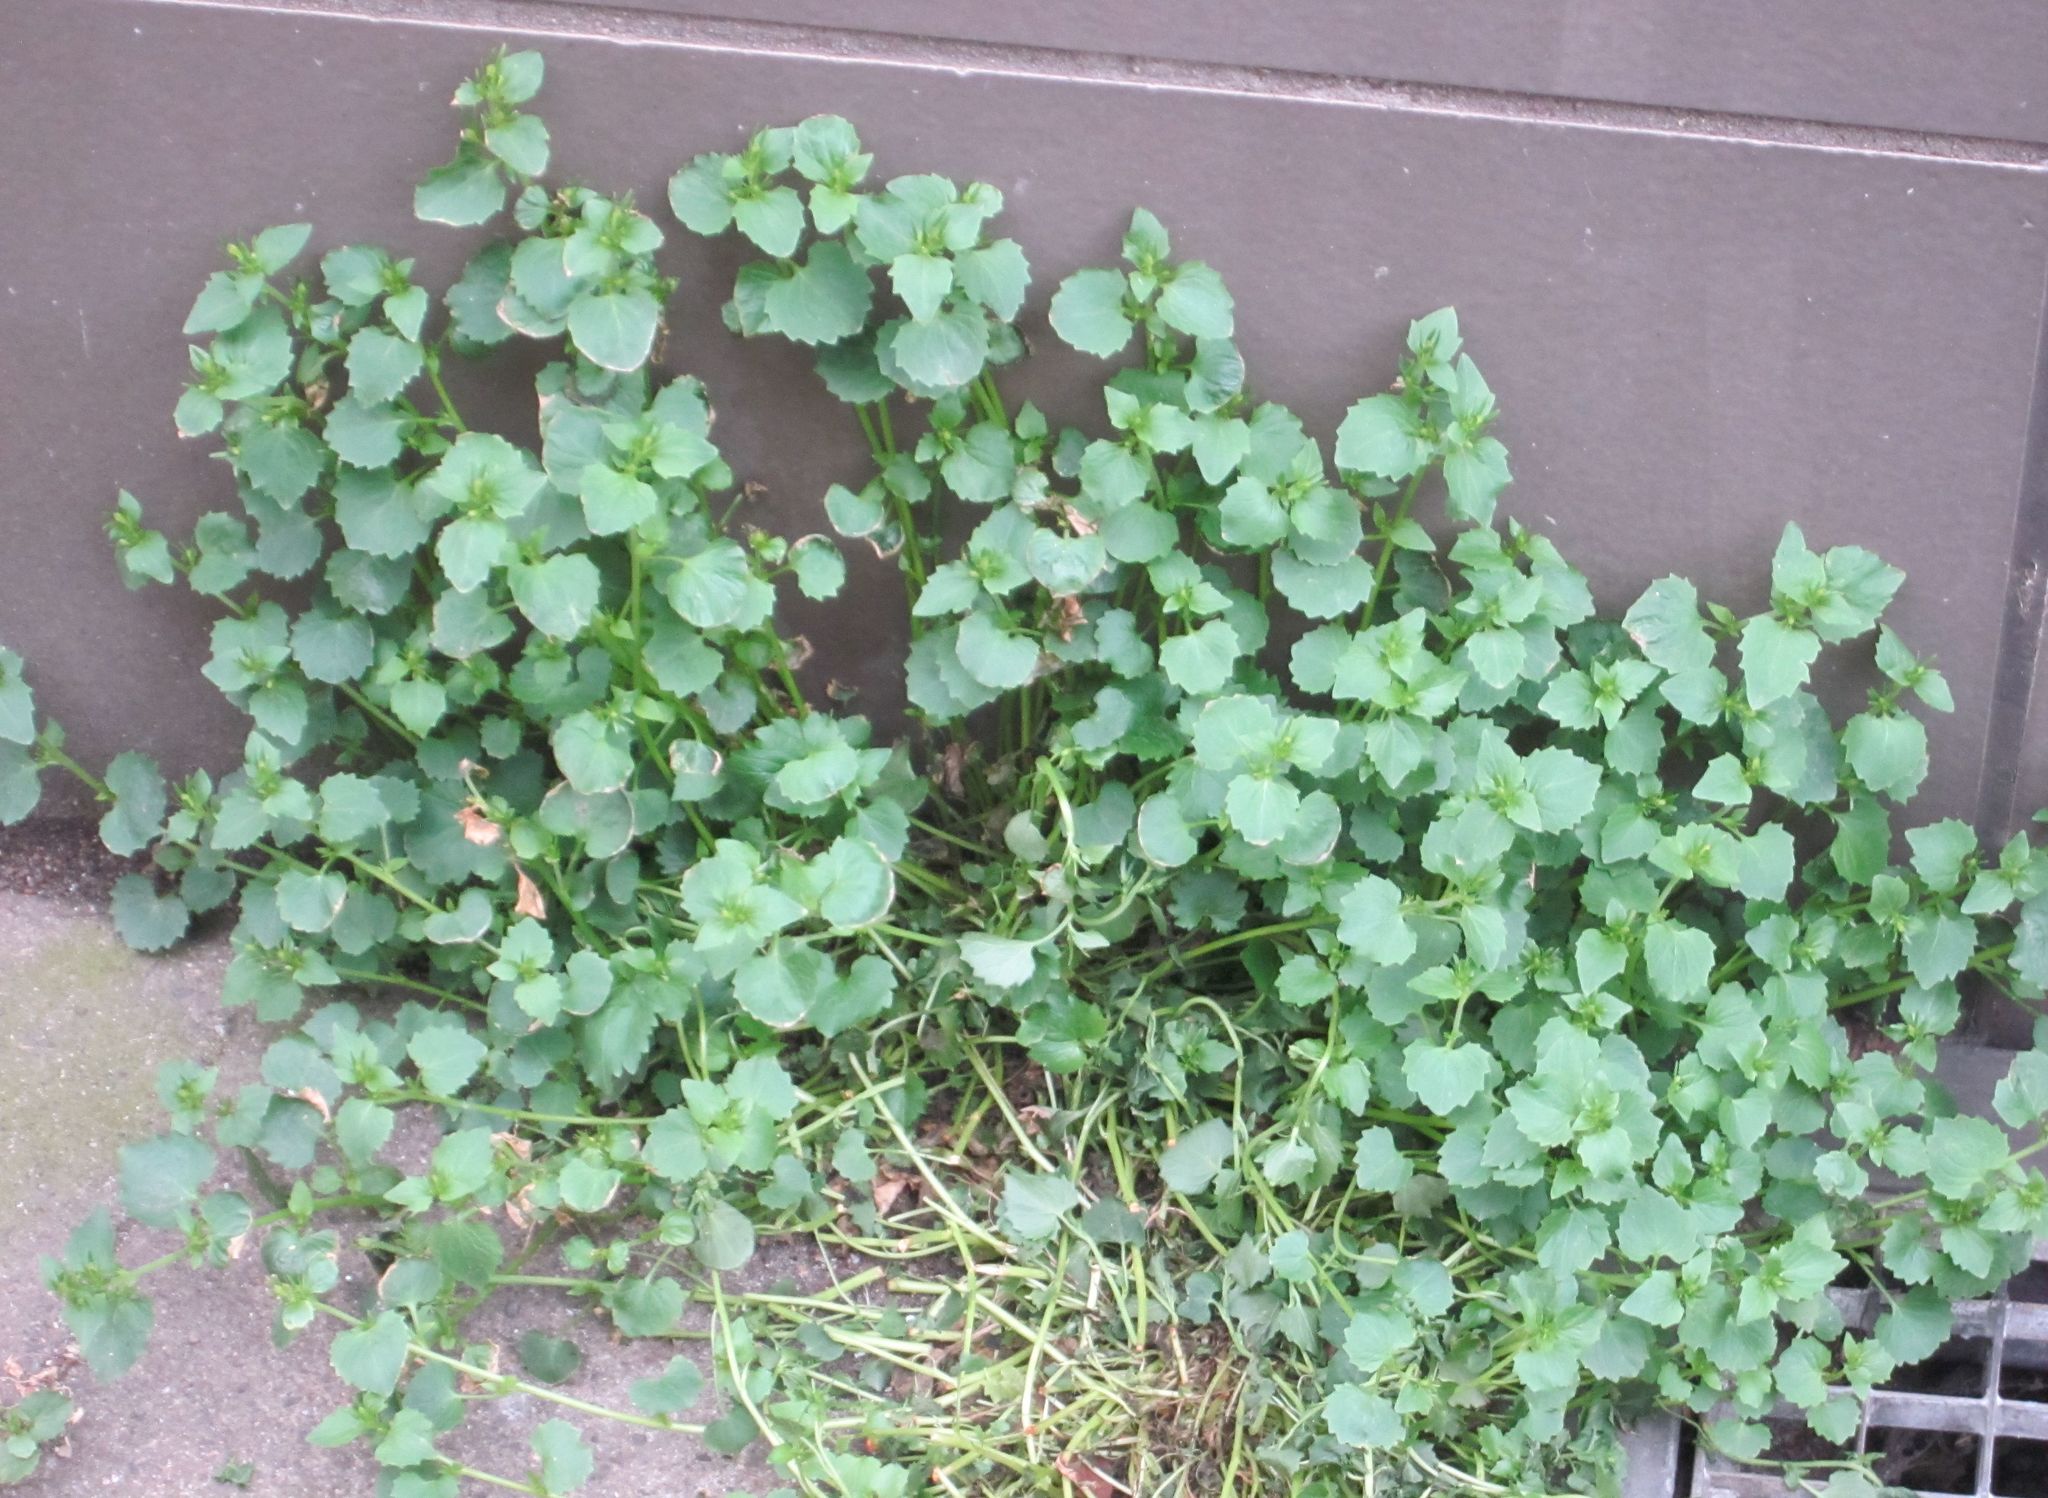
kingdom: Plantae
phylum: Tracheophyta
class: Magnoliopsida
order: Asterales
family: Campanulaceae
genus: Campanula
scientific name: Campanula poscharskyana
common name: Trailing bellflower
